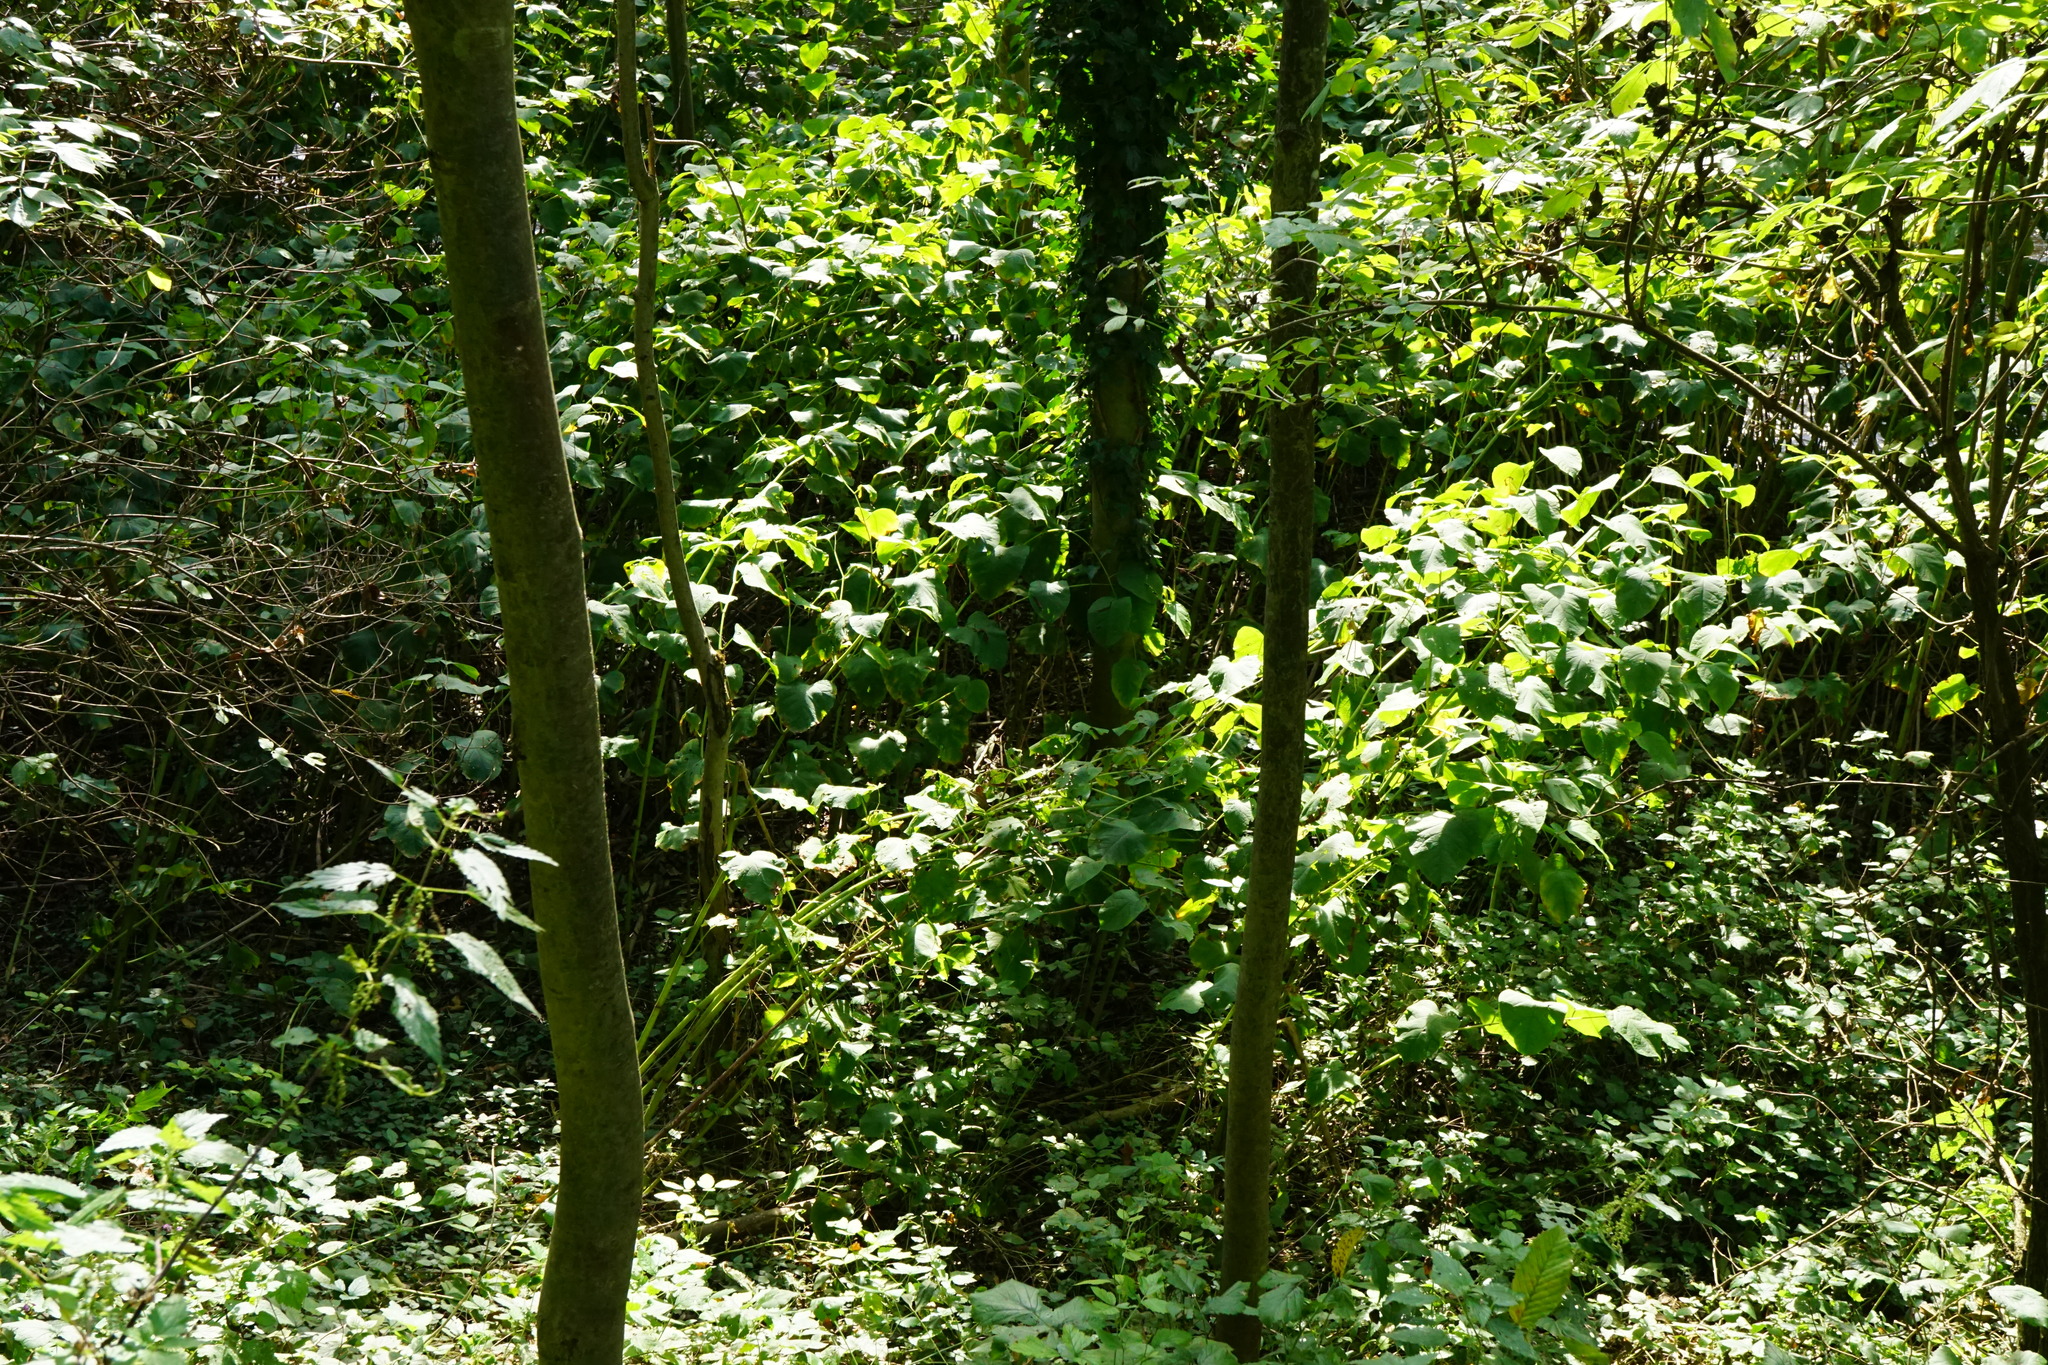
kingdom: Plantae
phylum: Tracheophyta
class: Magnoliopsida
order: Caryophyllales
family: Polygonaceae
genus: Reynoutria
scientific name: Reynoutria bohemica
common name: Bohemian knotweed
